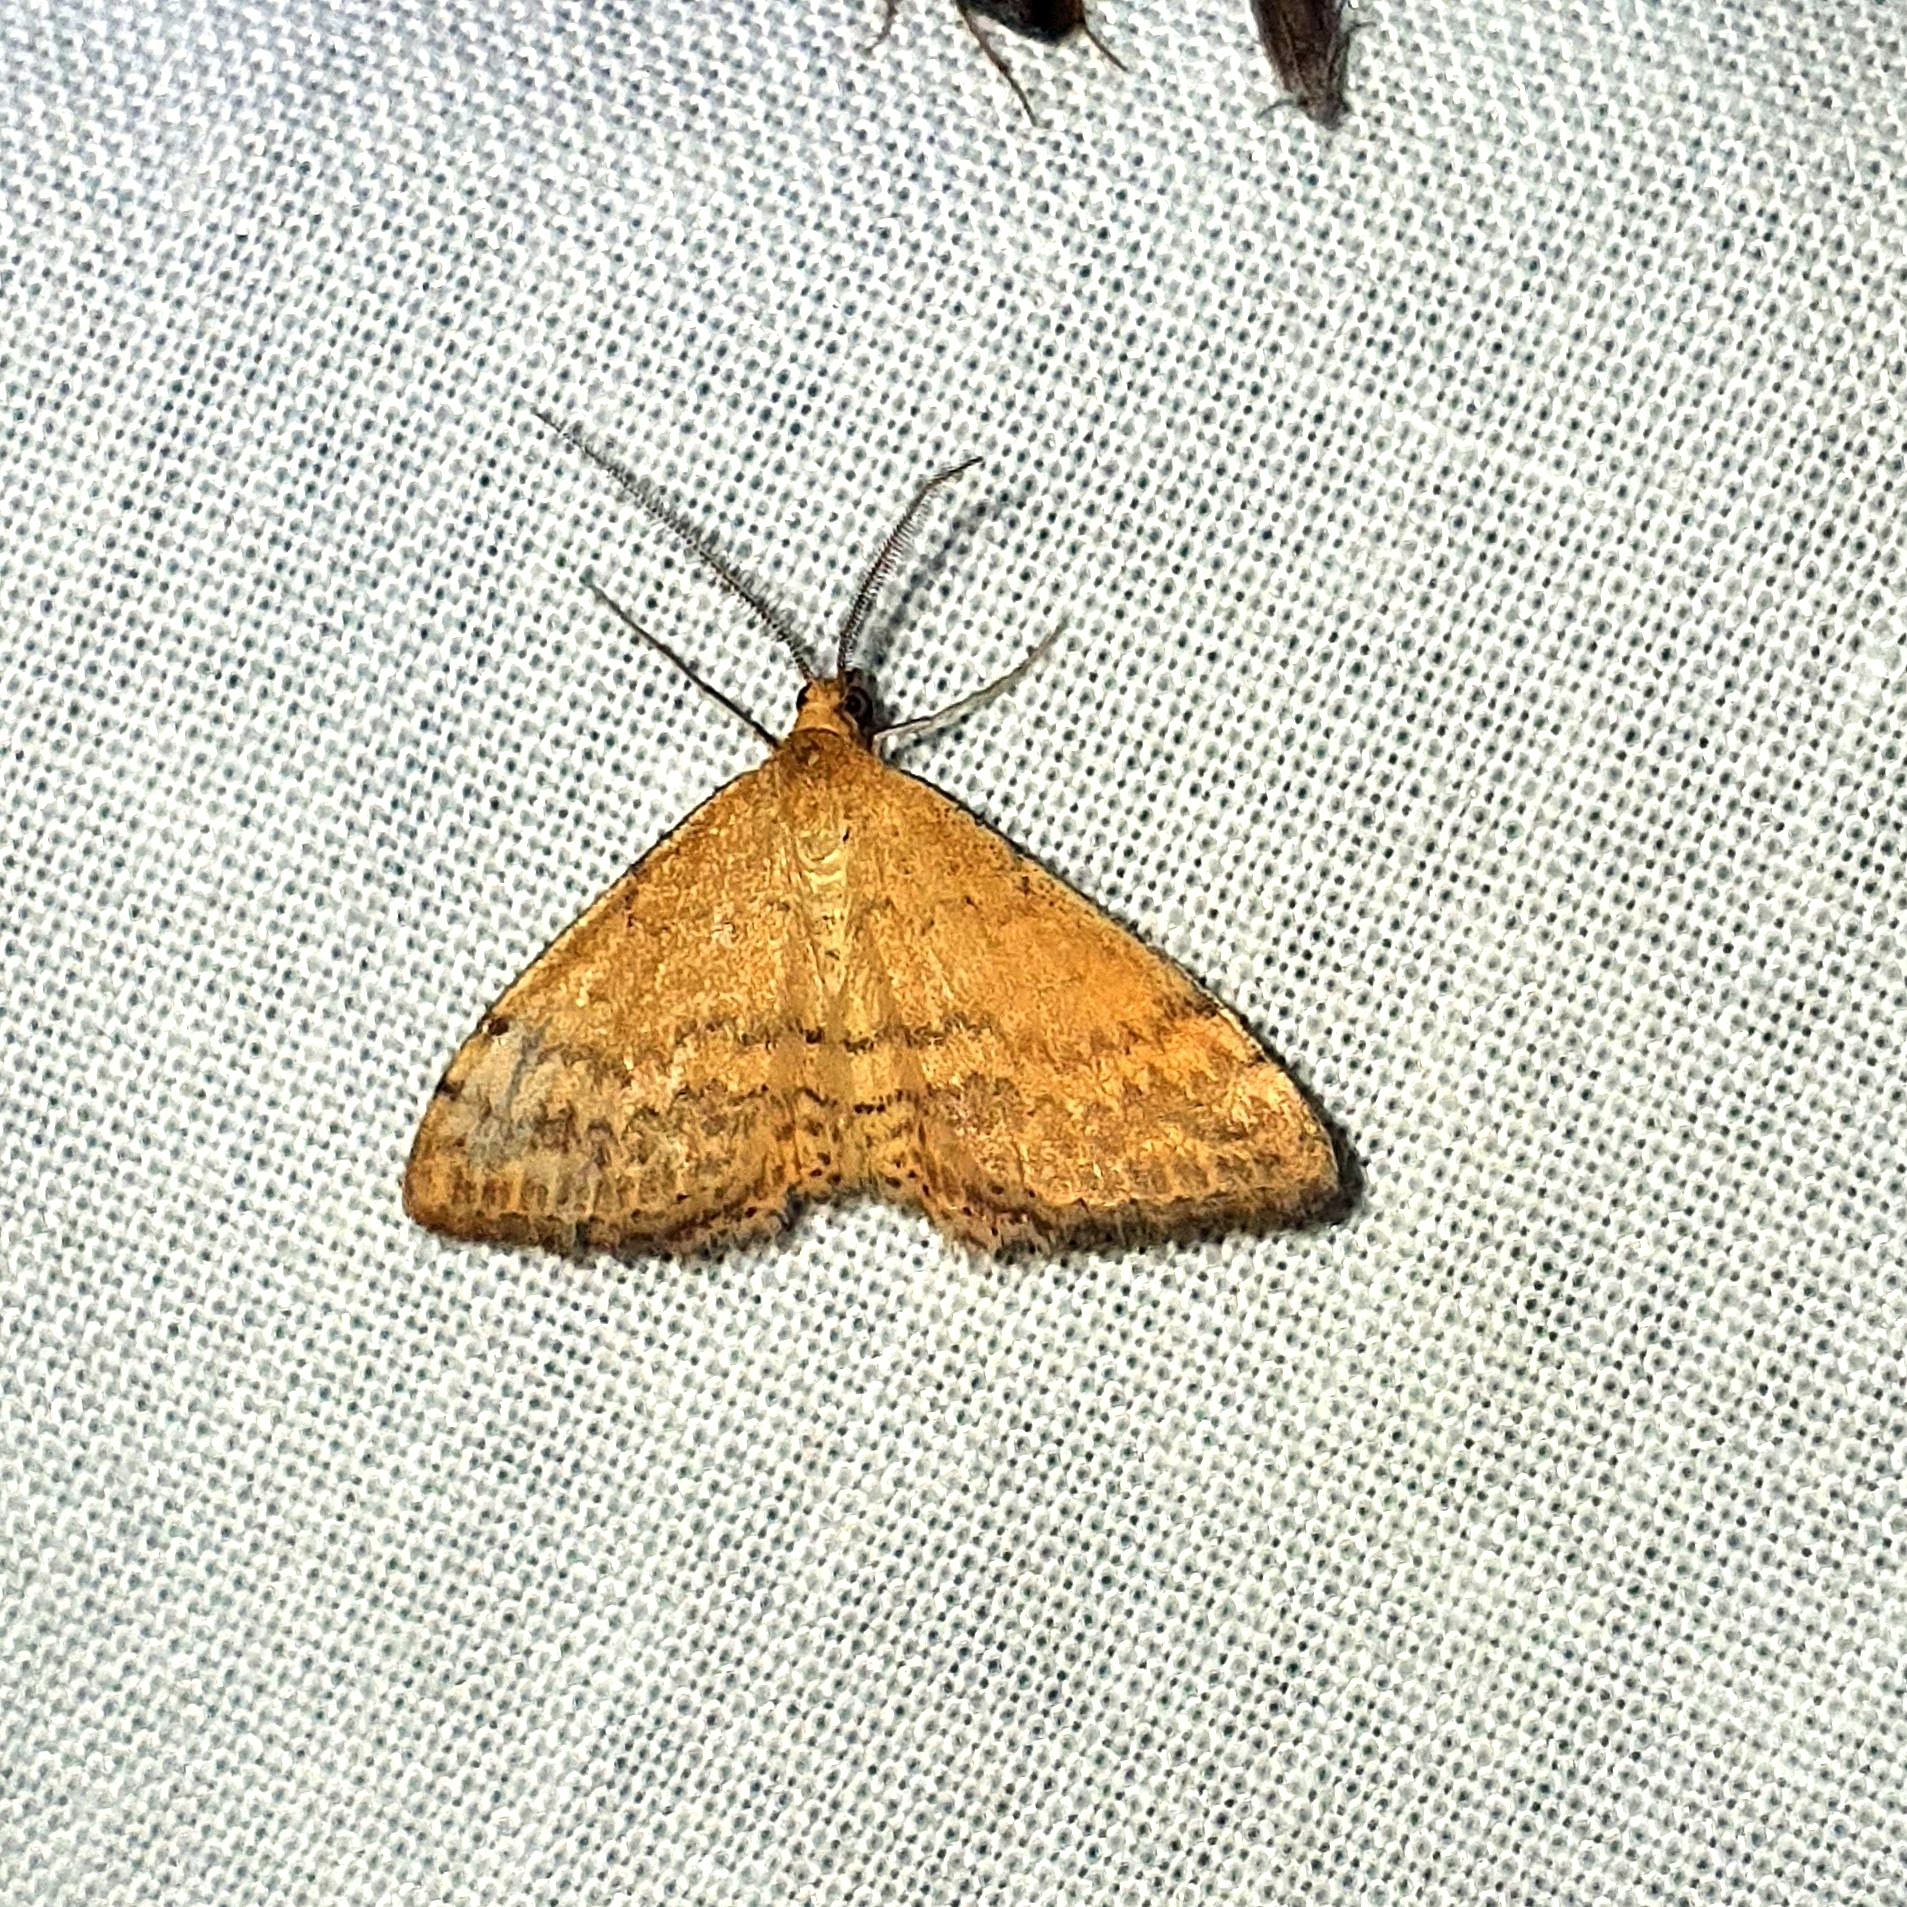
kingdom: Animalia
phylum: Arthropoda
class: Insecta
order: Lepidoptera
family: Geometridae
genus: Scopula
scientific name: Scopula rubraria
